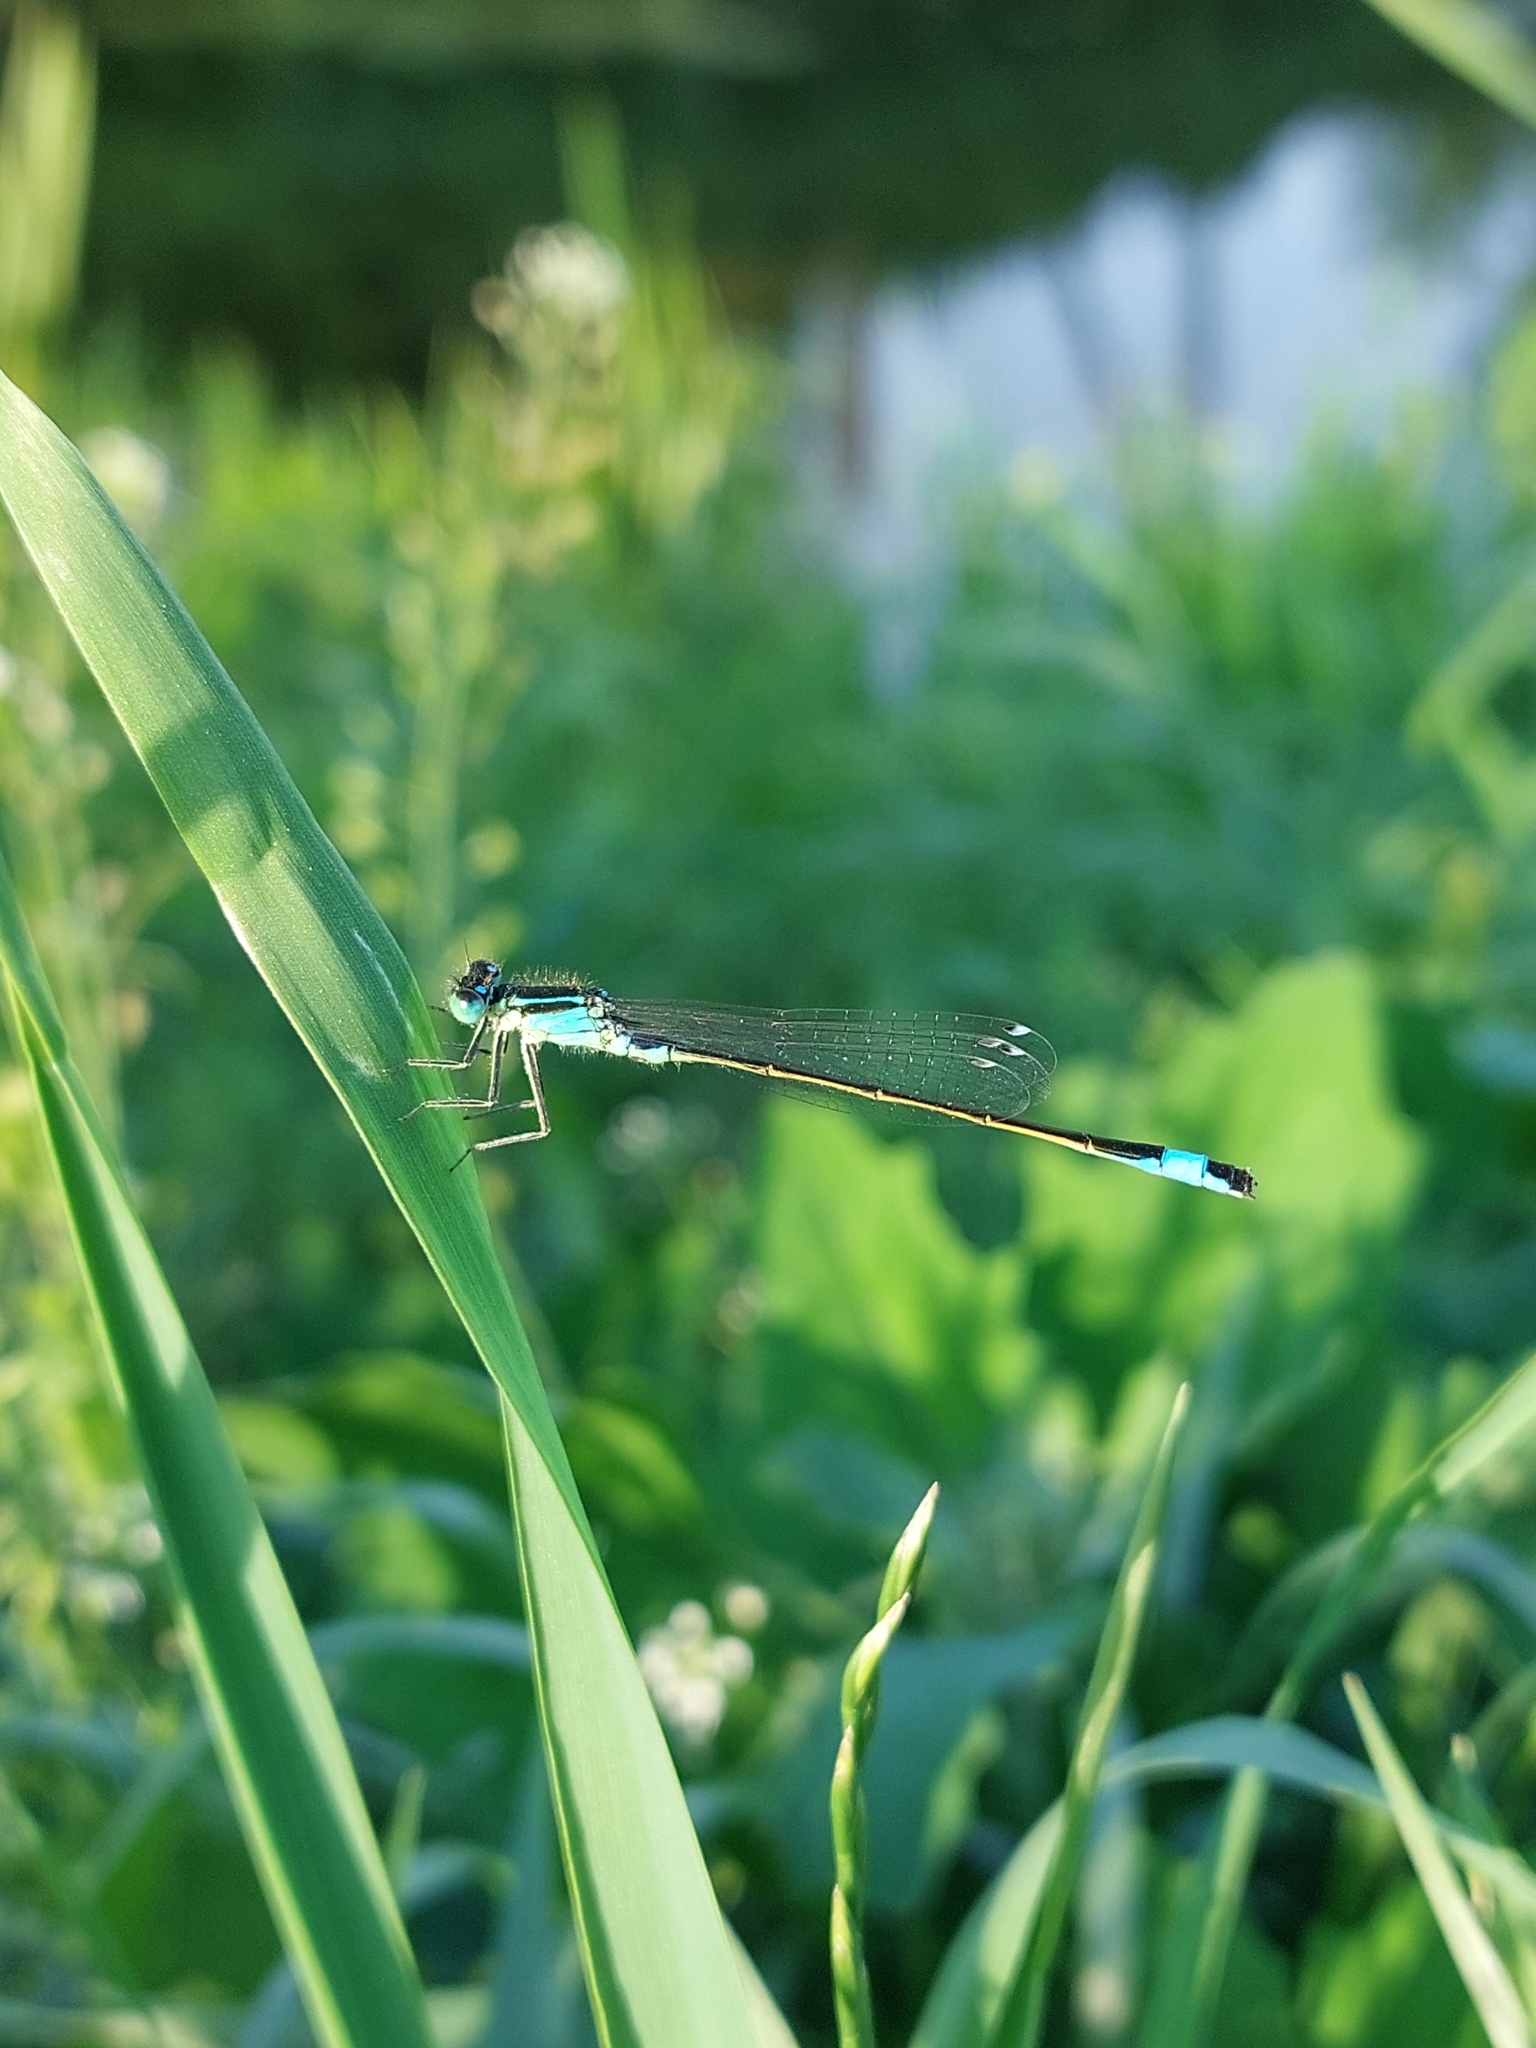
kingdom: Animalia
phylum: Arthropoda
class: Insecta
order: Odonata
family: Coenagrionidae
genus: Ischnura
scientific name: Ischnura elegans
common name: Blue-tailed damselfly
